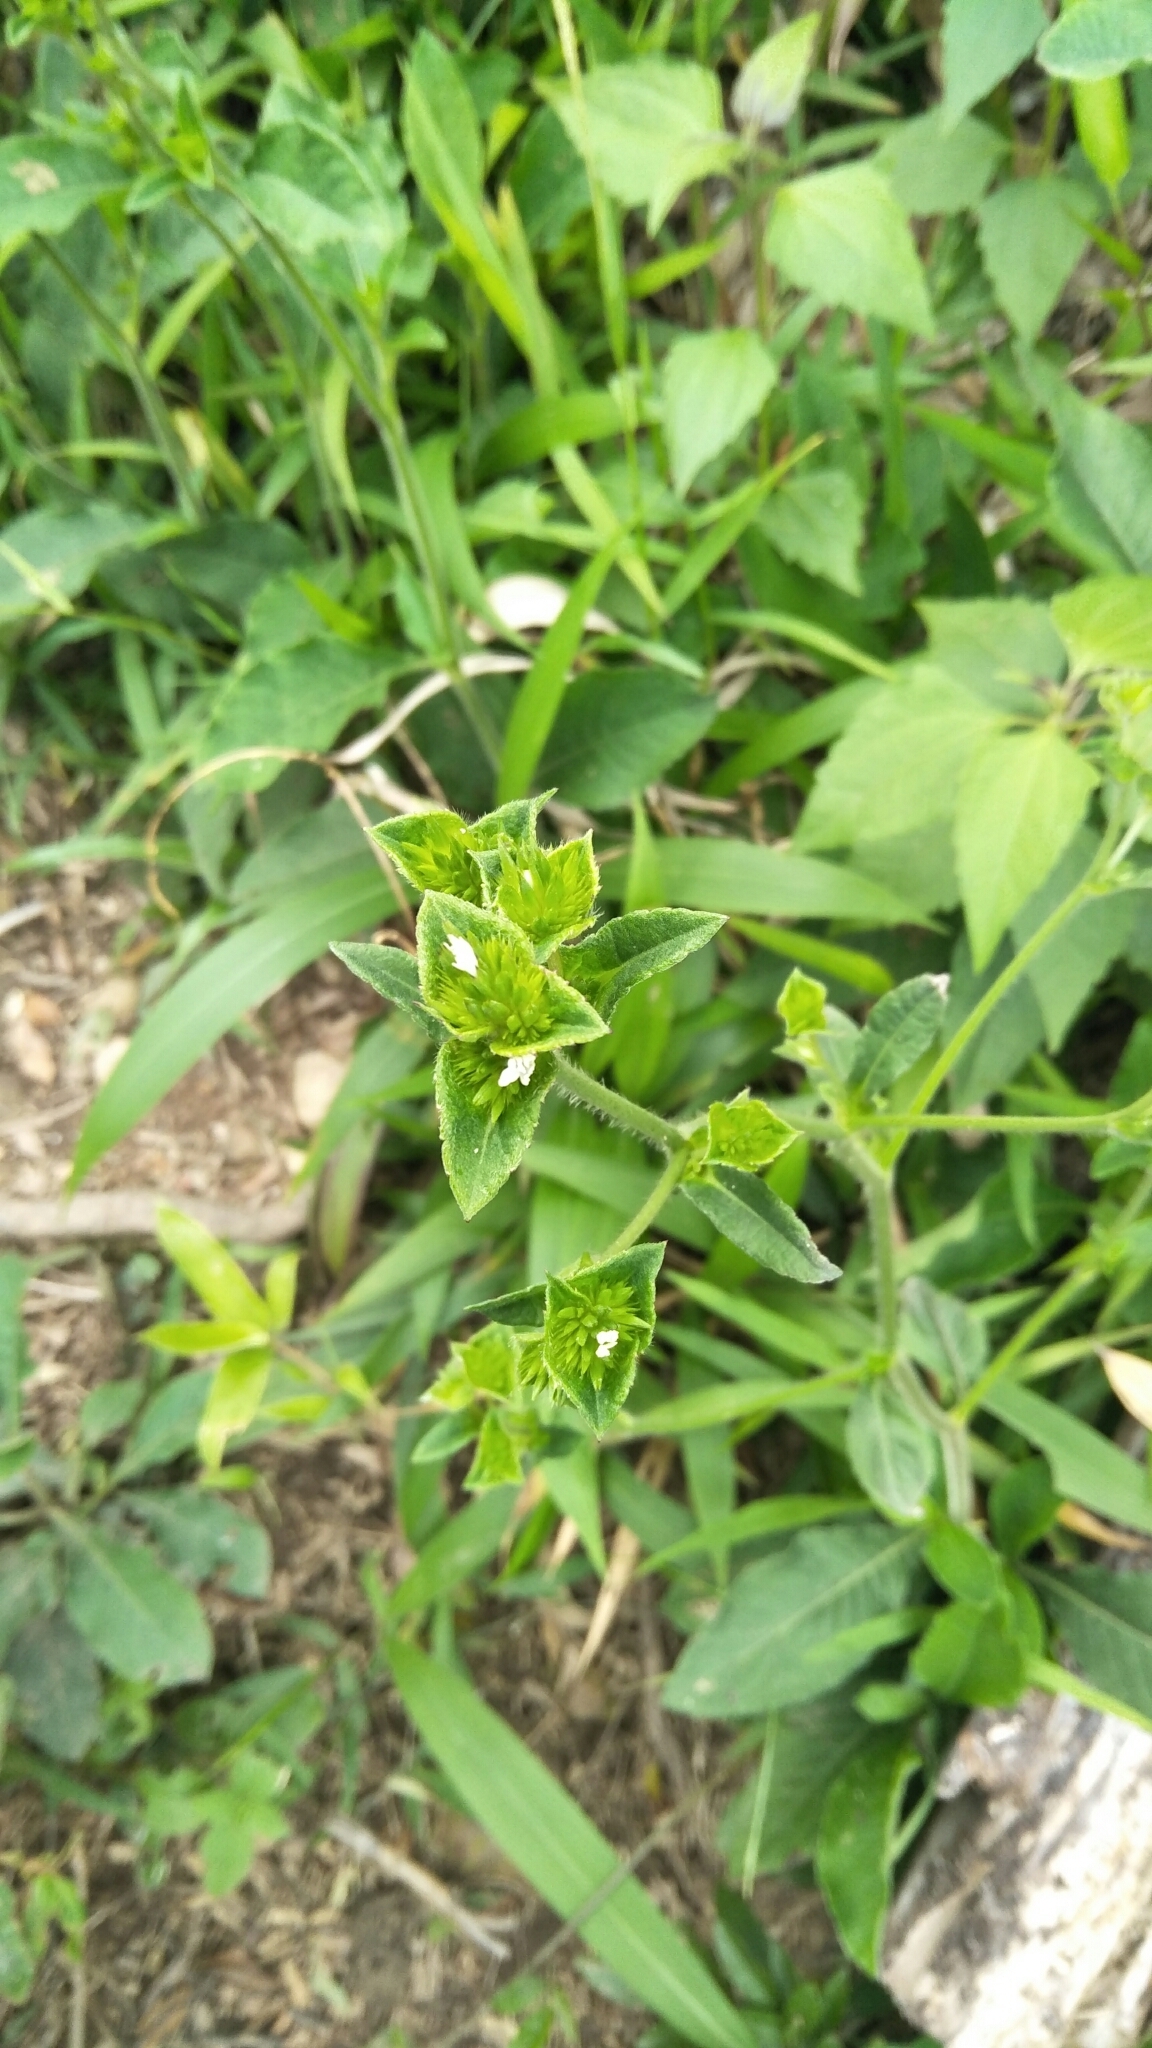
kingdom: Plantae
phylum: Tracheophyta
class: Magnoliopsida
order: Asterales
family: Asteraceae
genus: Elephantopus
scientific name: Elephantopus mollis
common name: Soft elephantsfoot
